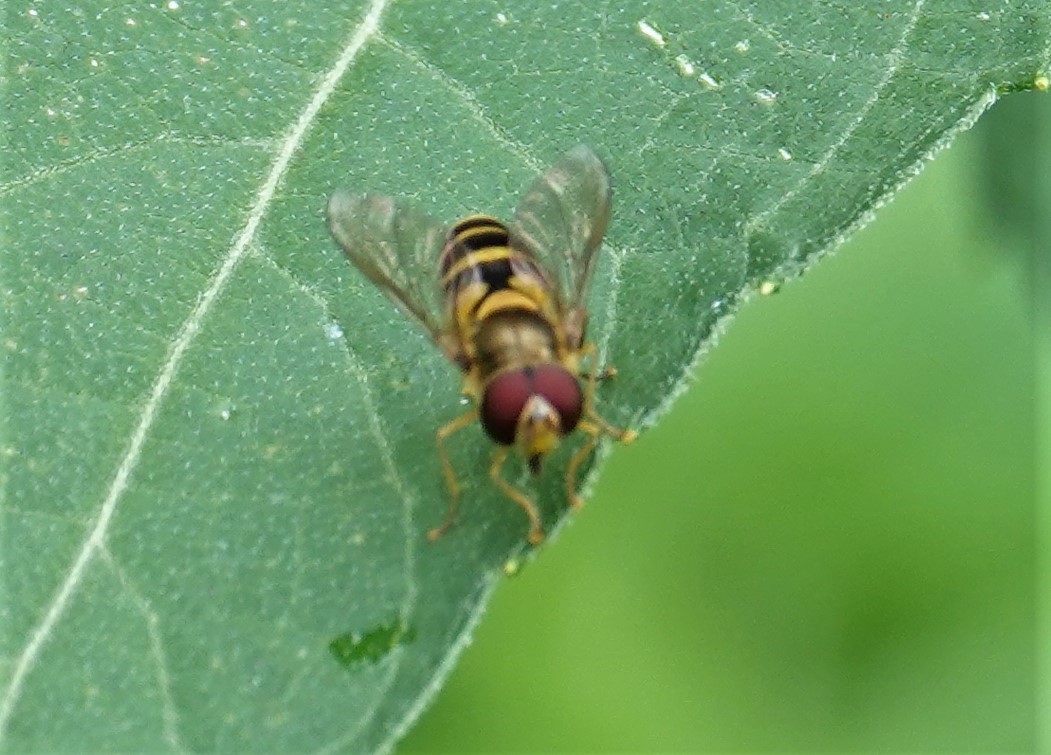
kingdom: Animalia
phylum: Arthropoda
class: Insecta
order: Diptera
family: Syrphidae
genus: Syrphus
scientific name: Syrphus
